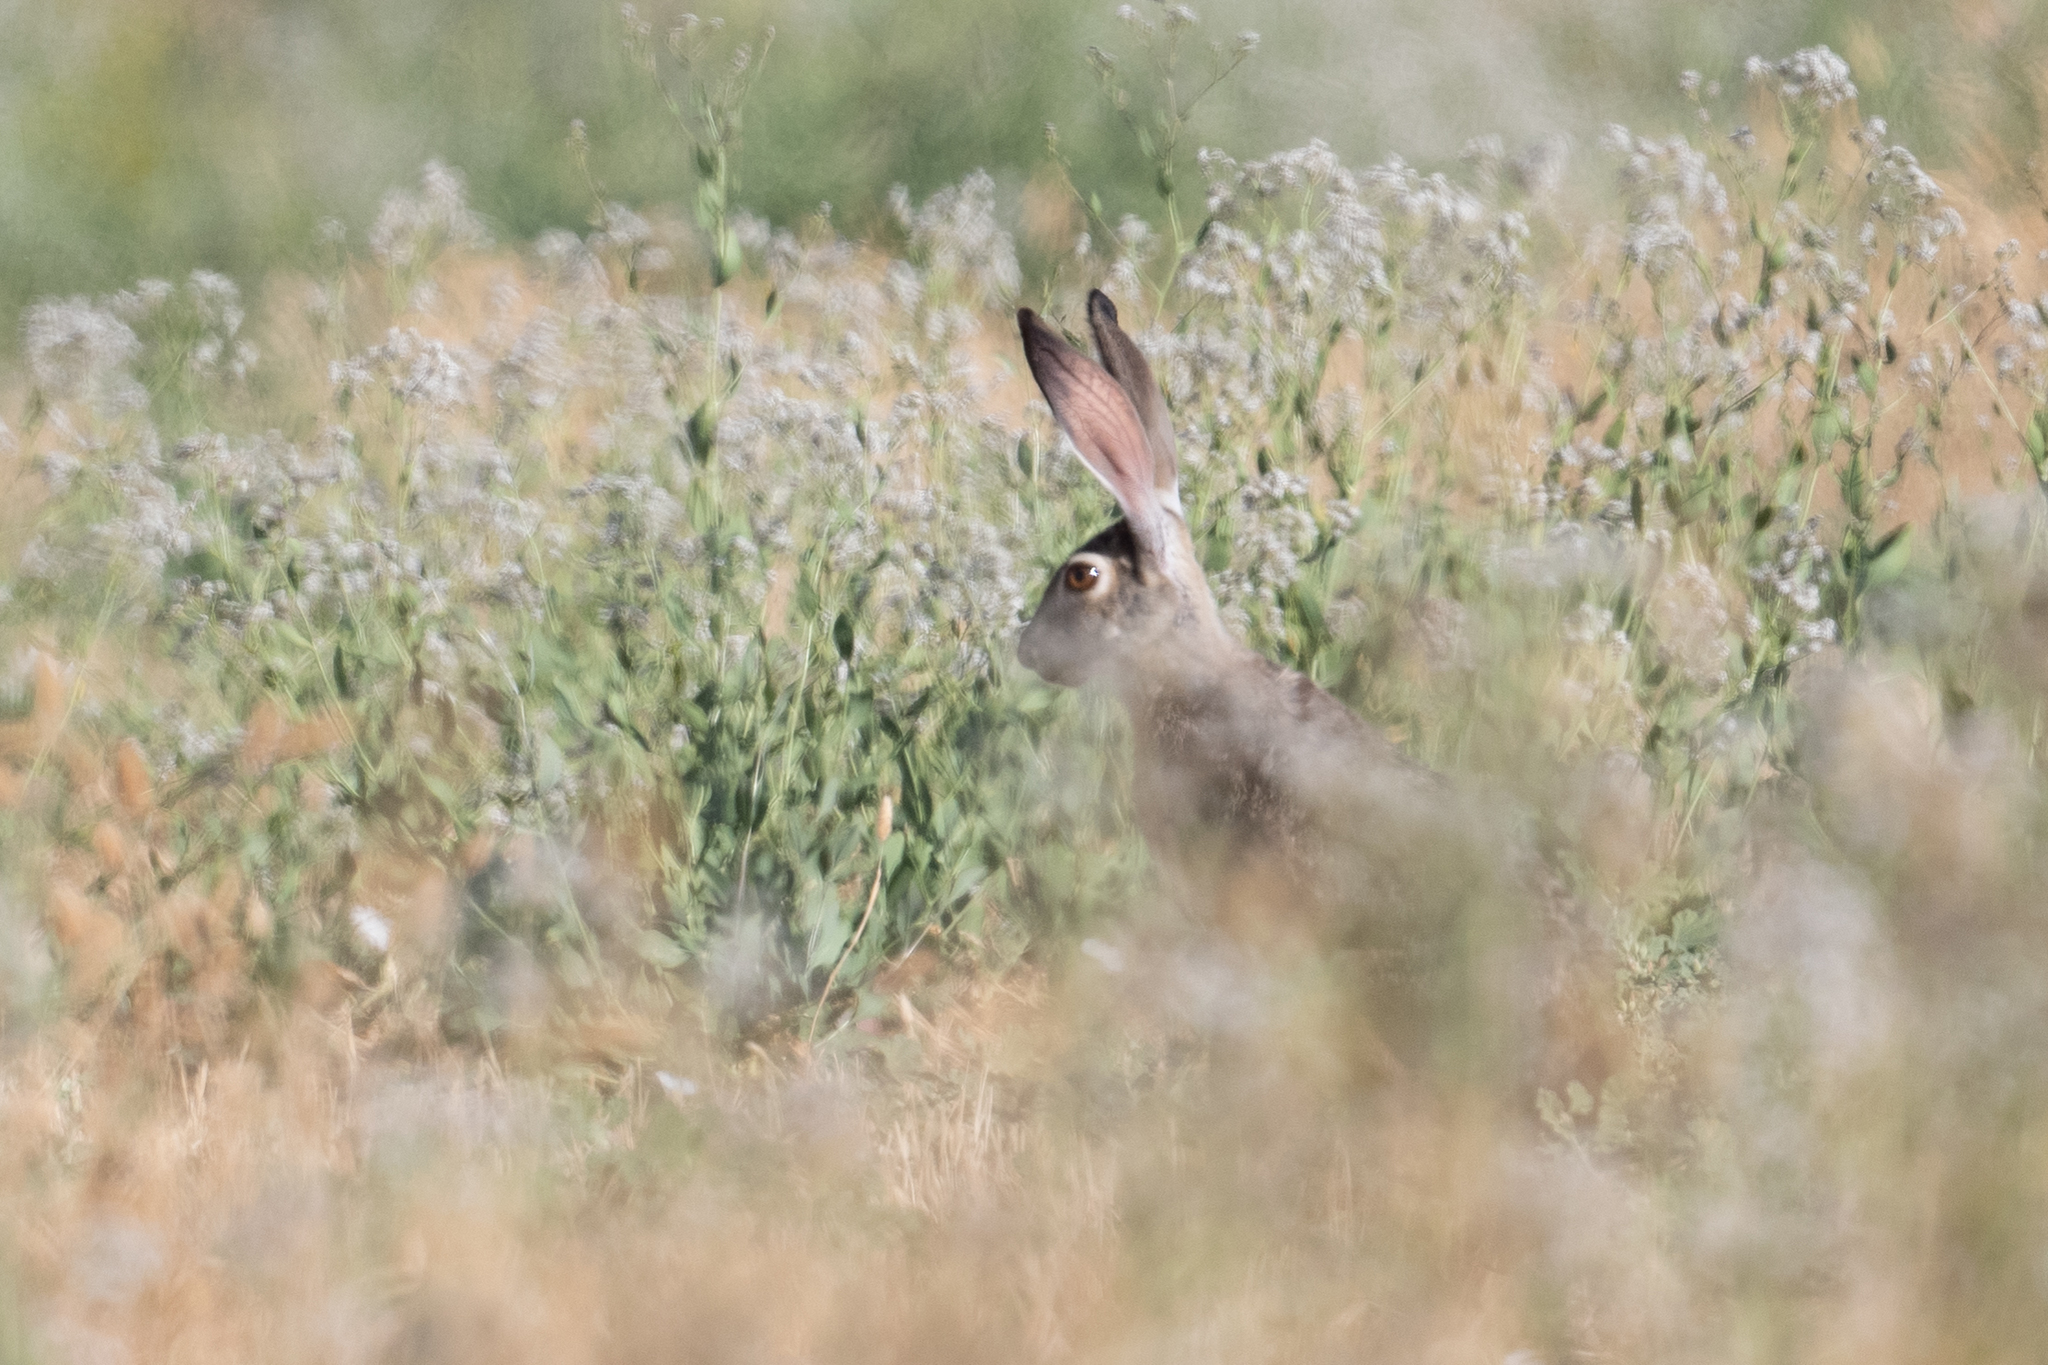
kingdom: Animalia
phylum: Chordata
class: Mammalia
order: Lagomorpha
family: Leporidae
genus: Lepus
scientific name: Lepus californicus
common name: Black-tailed jackrabbit
